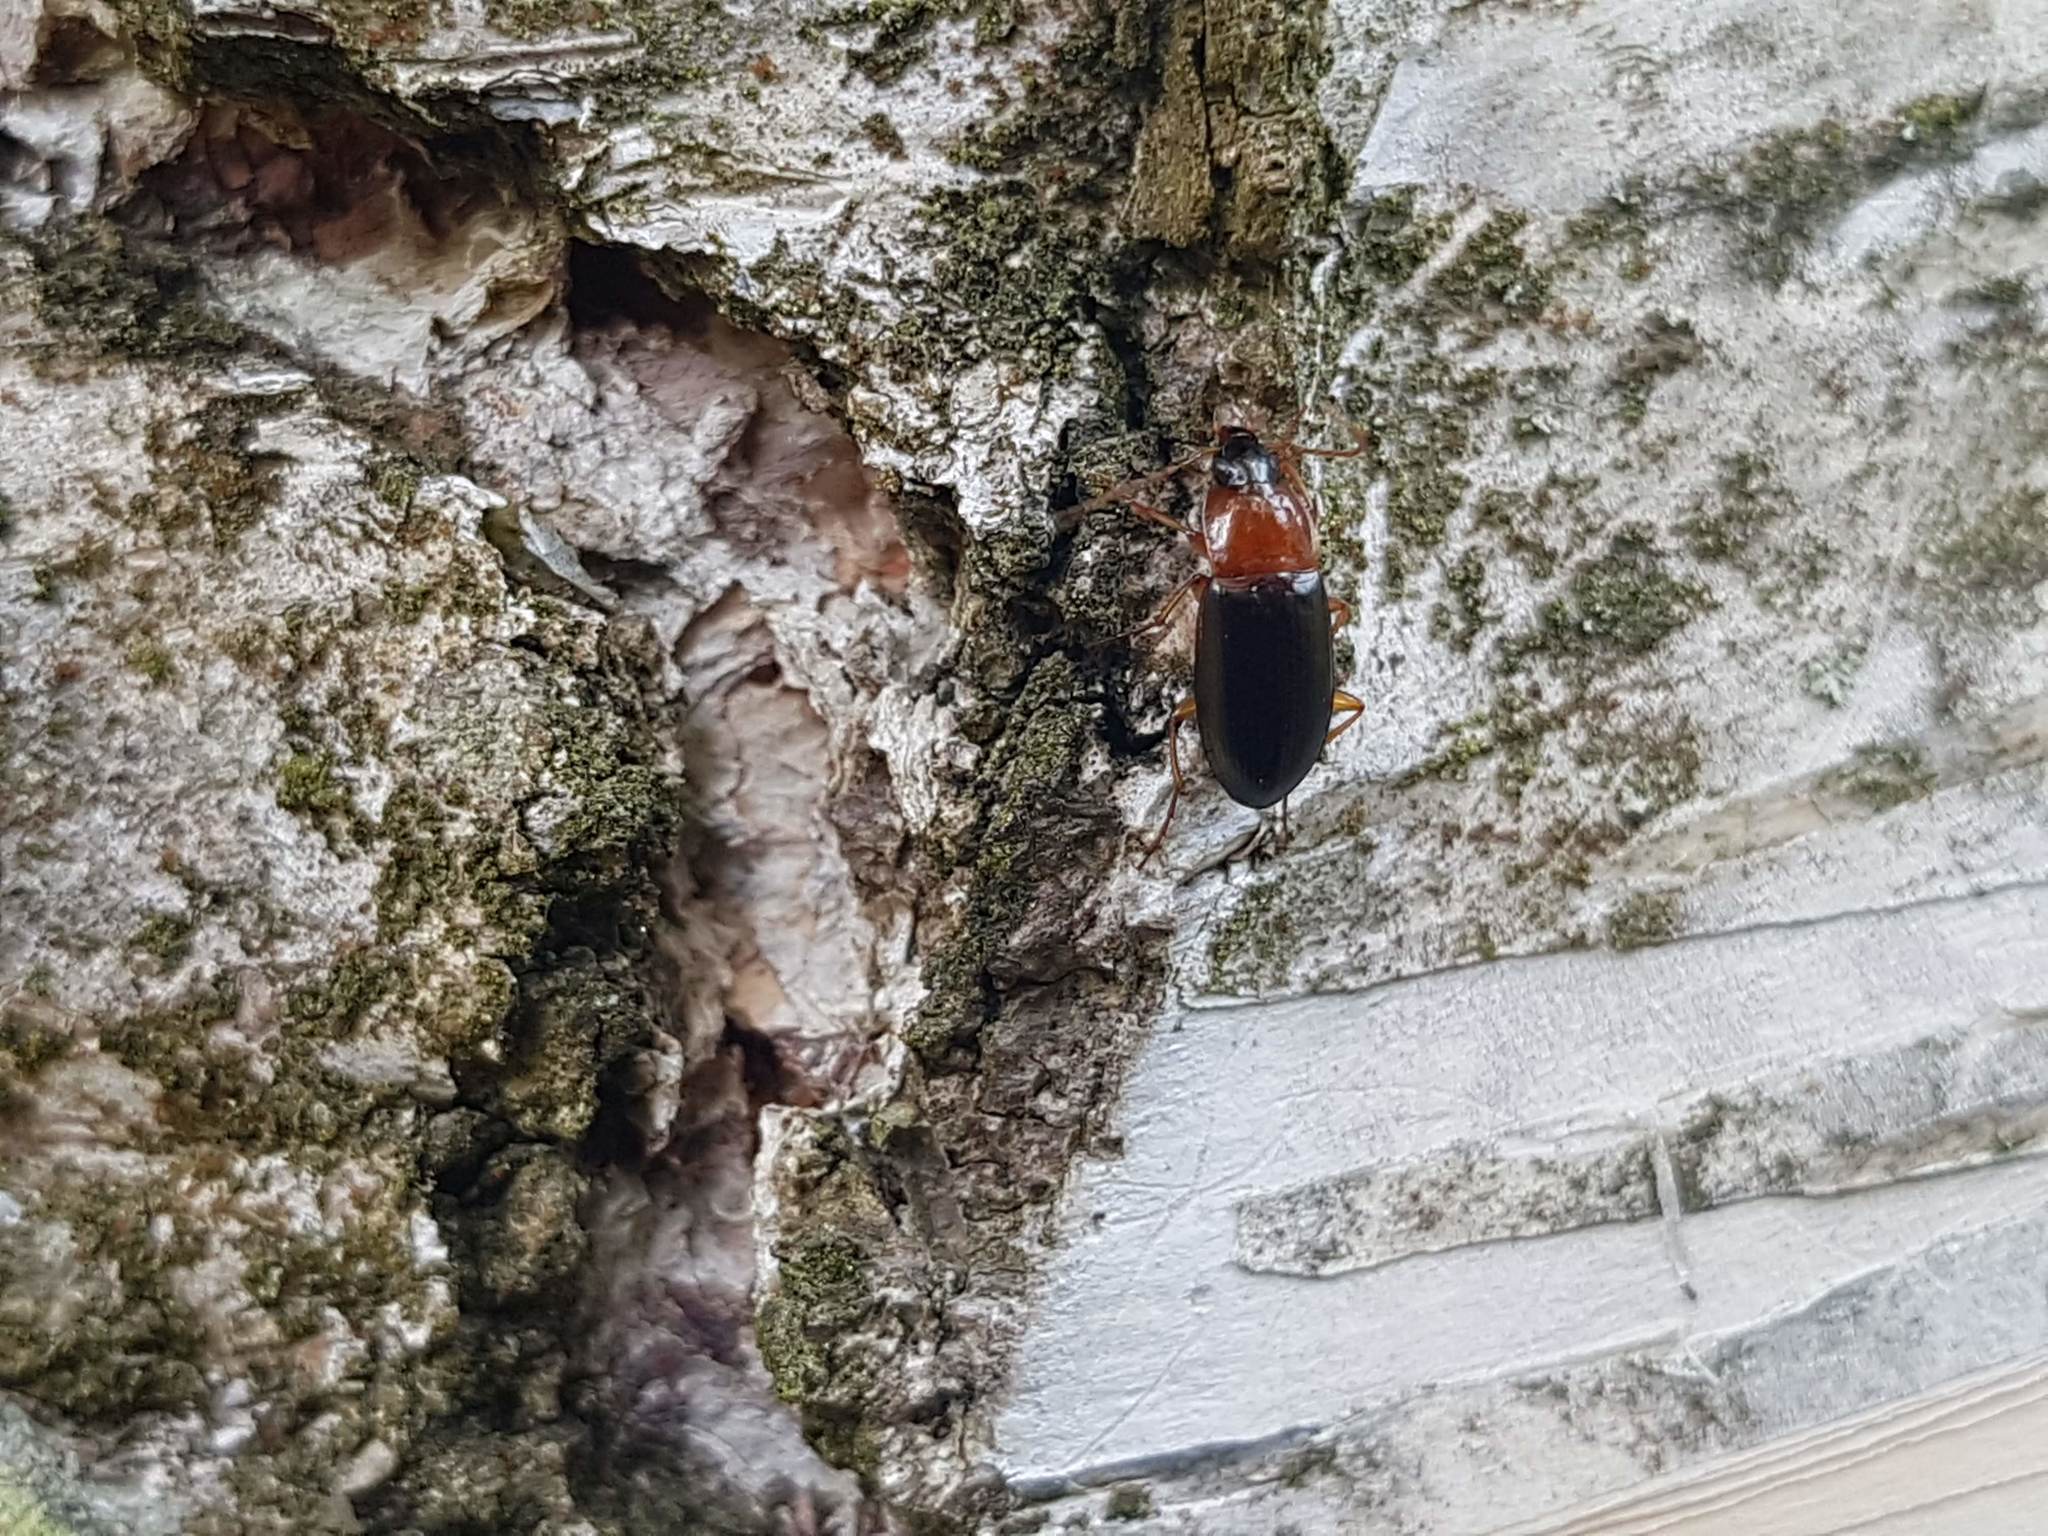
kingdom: Animalia
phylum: Arthropoda
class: Insecta
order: Coleoptera
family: Carabidae
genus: Calathus
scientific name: Calathus melanocephalus
